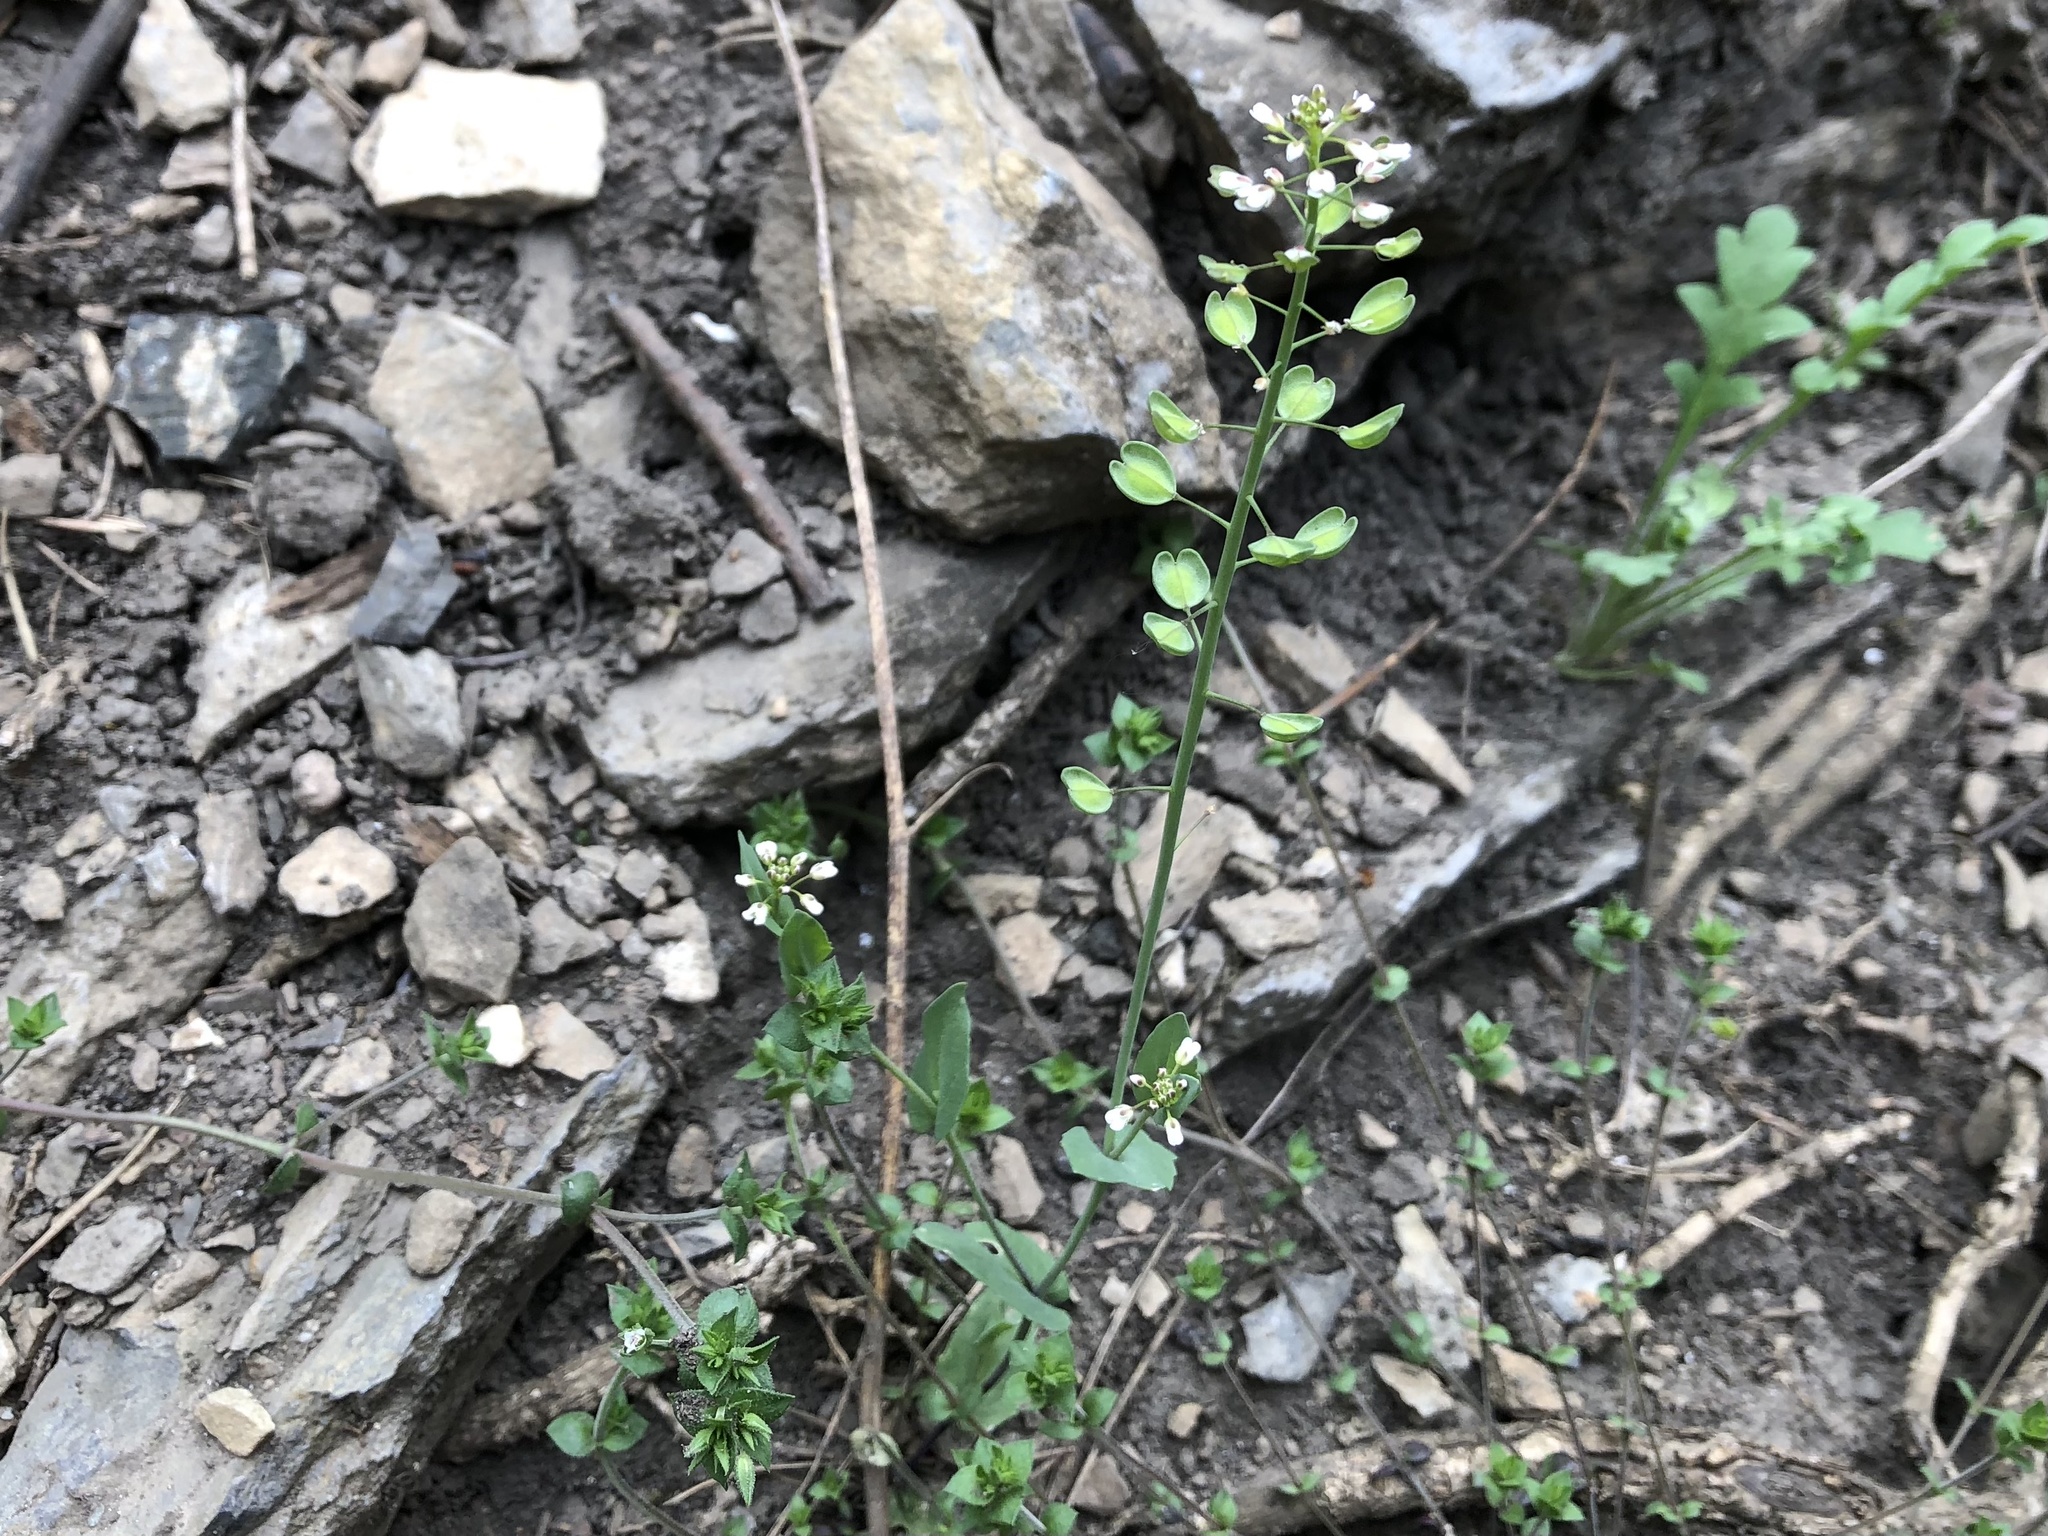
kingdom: Plantae
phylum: Tracheophyta
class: Magnoliopsida
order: Brassicales
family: Brassicaceae
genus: Noccaea
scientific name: Noccaea perfoliata
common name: Perfoliate pennycress
